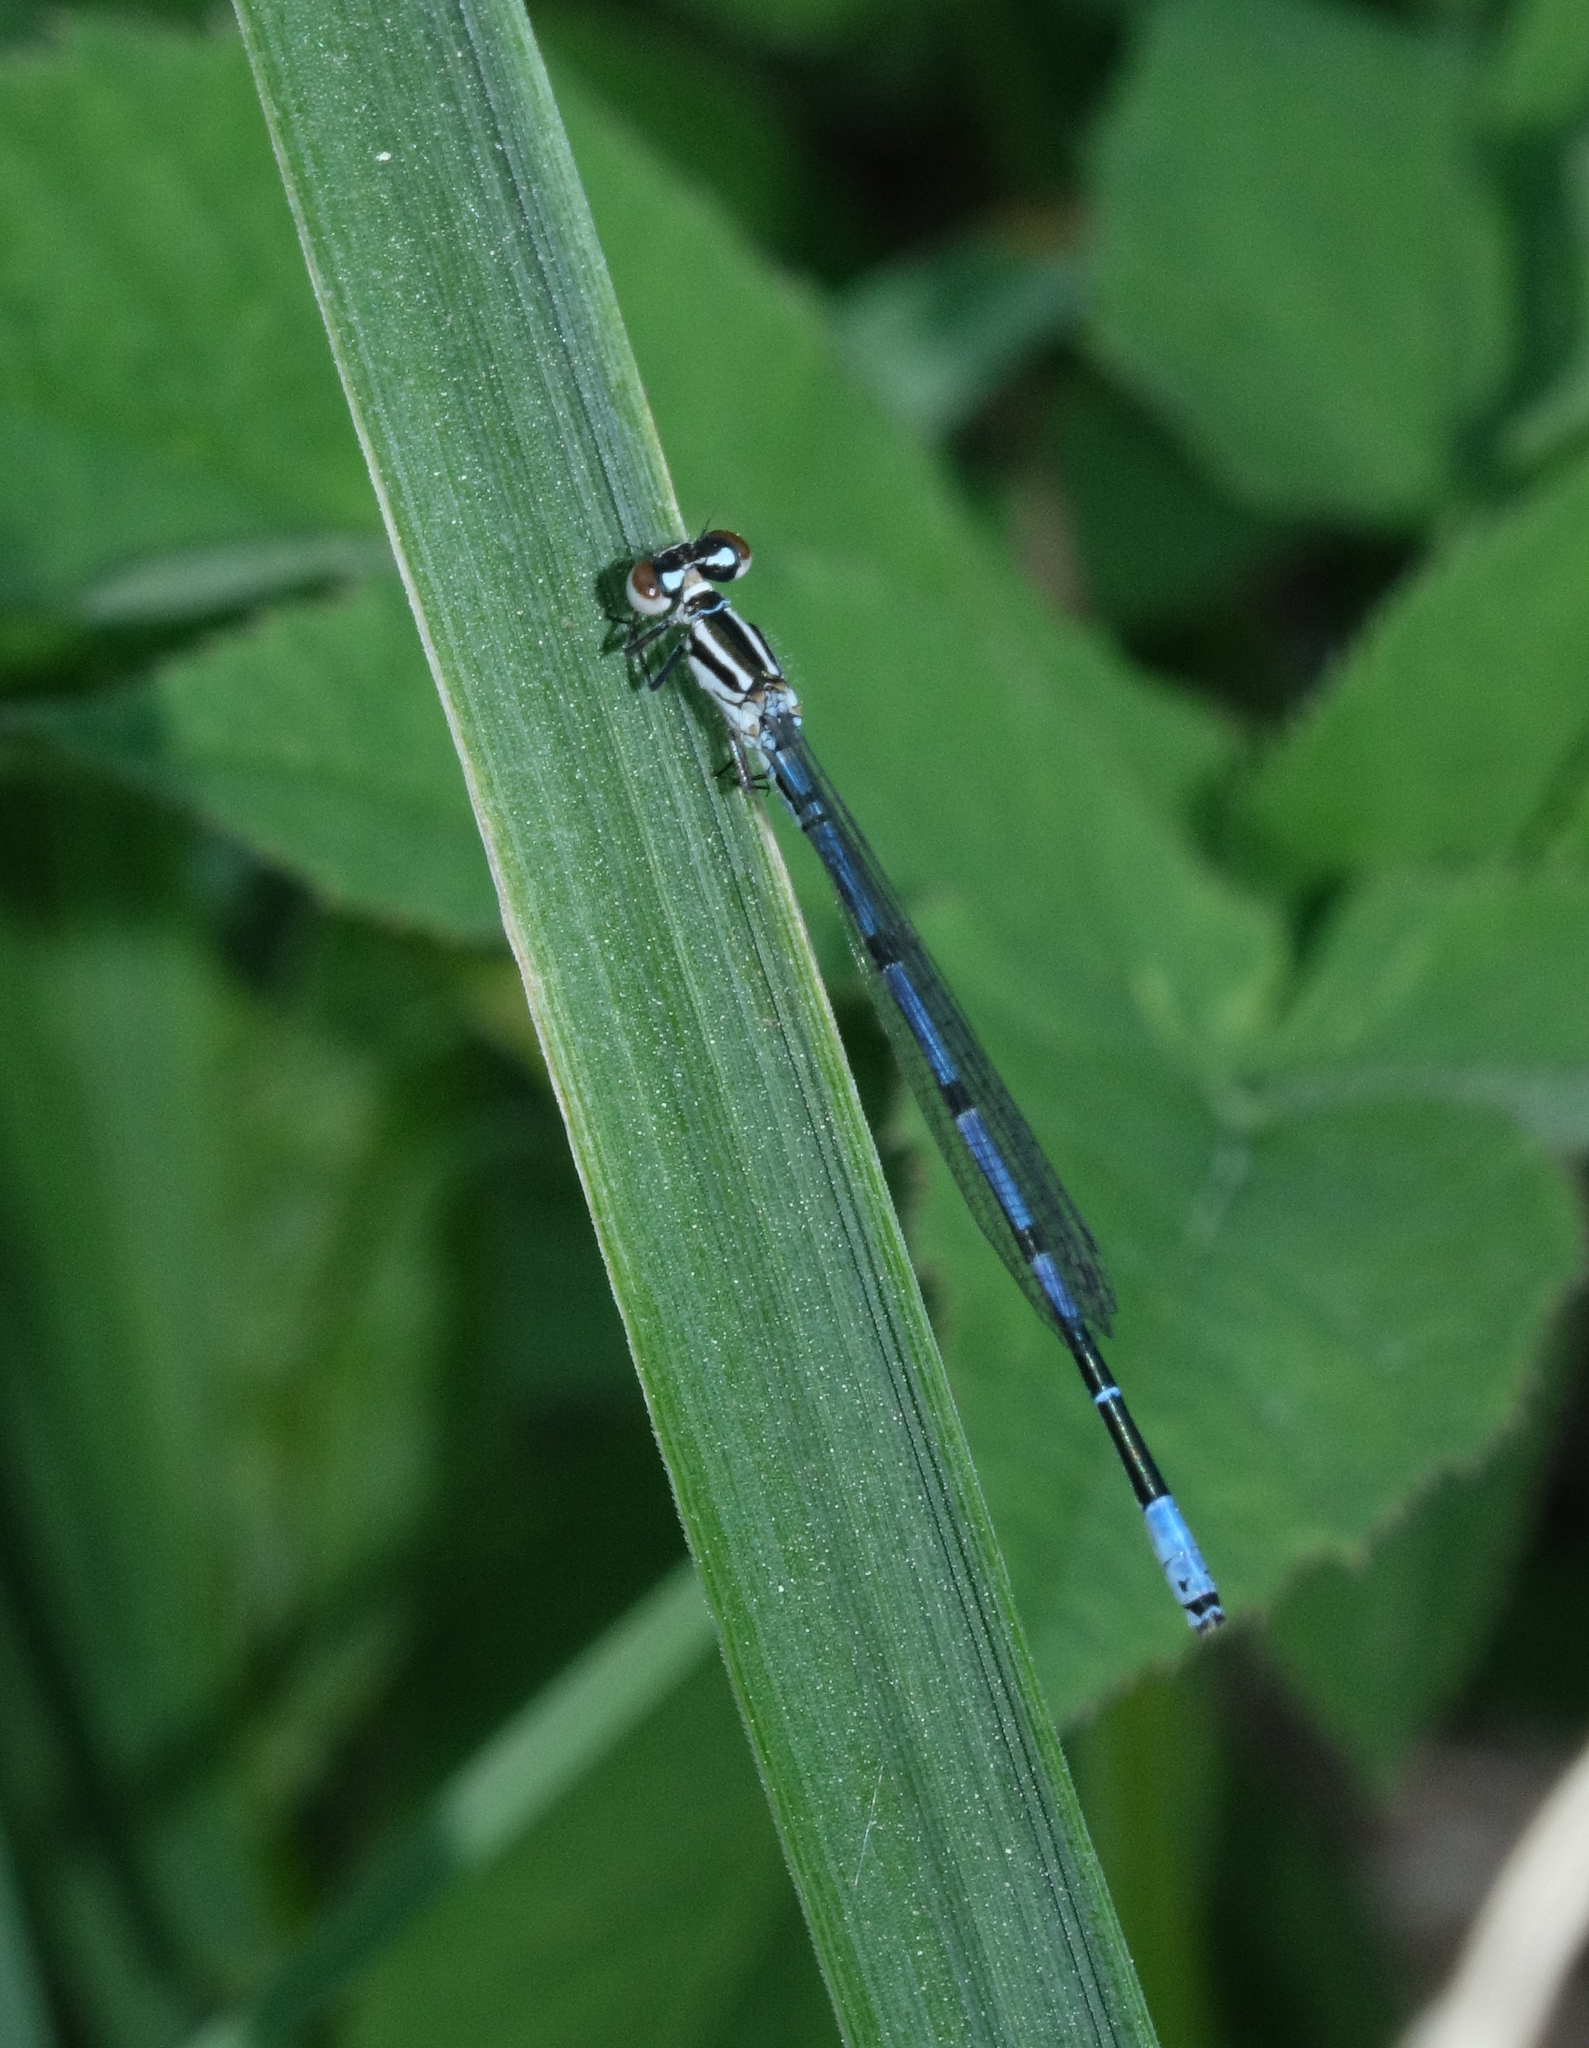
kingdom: Animalia
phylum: Arthropoda
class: Insecta
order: Odonata
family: Coenagrionidae
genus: Coenagrion
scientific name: Coenagrion puella
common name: Azure damselfly
